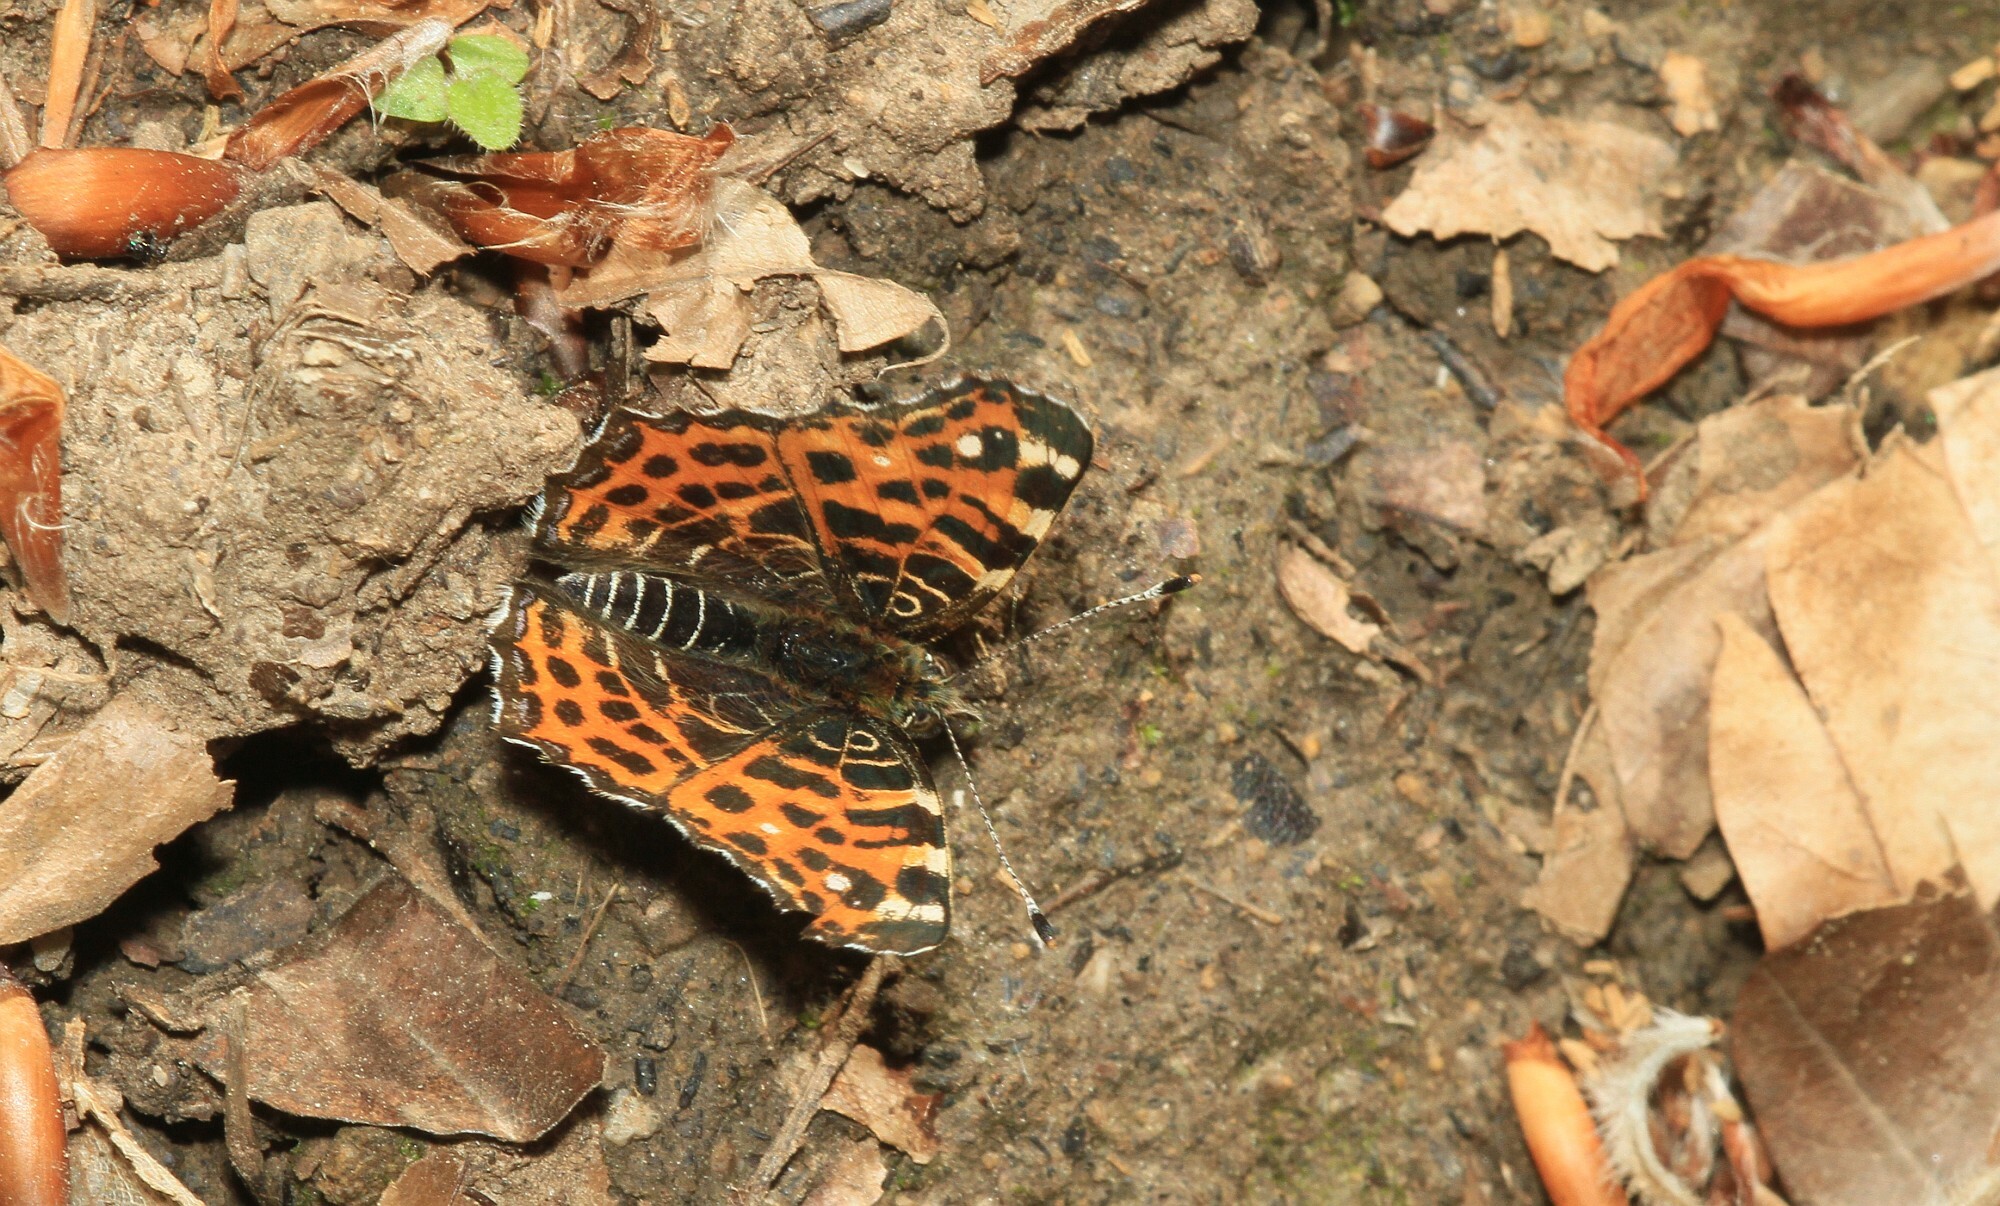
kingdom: Animalia
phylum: Arthropoda
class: Insecta
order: Lepidoptera
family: Nymphalidae
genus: Araschnia
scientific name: Araschnia levana
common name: Map butterfly
